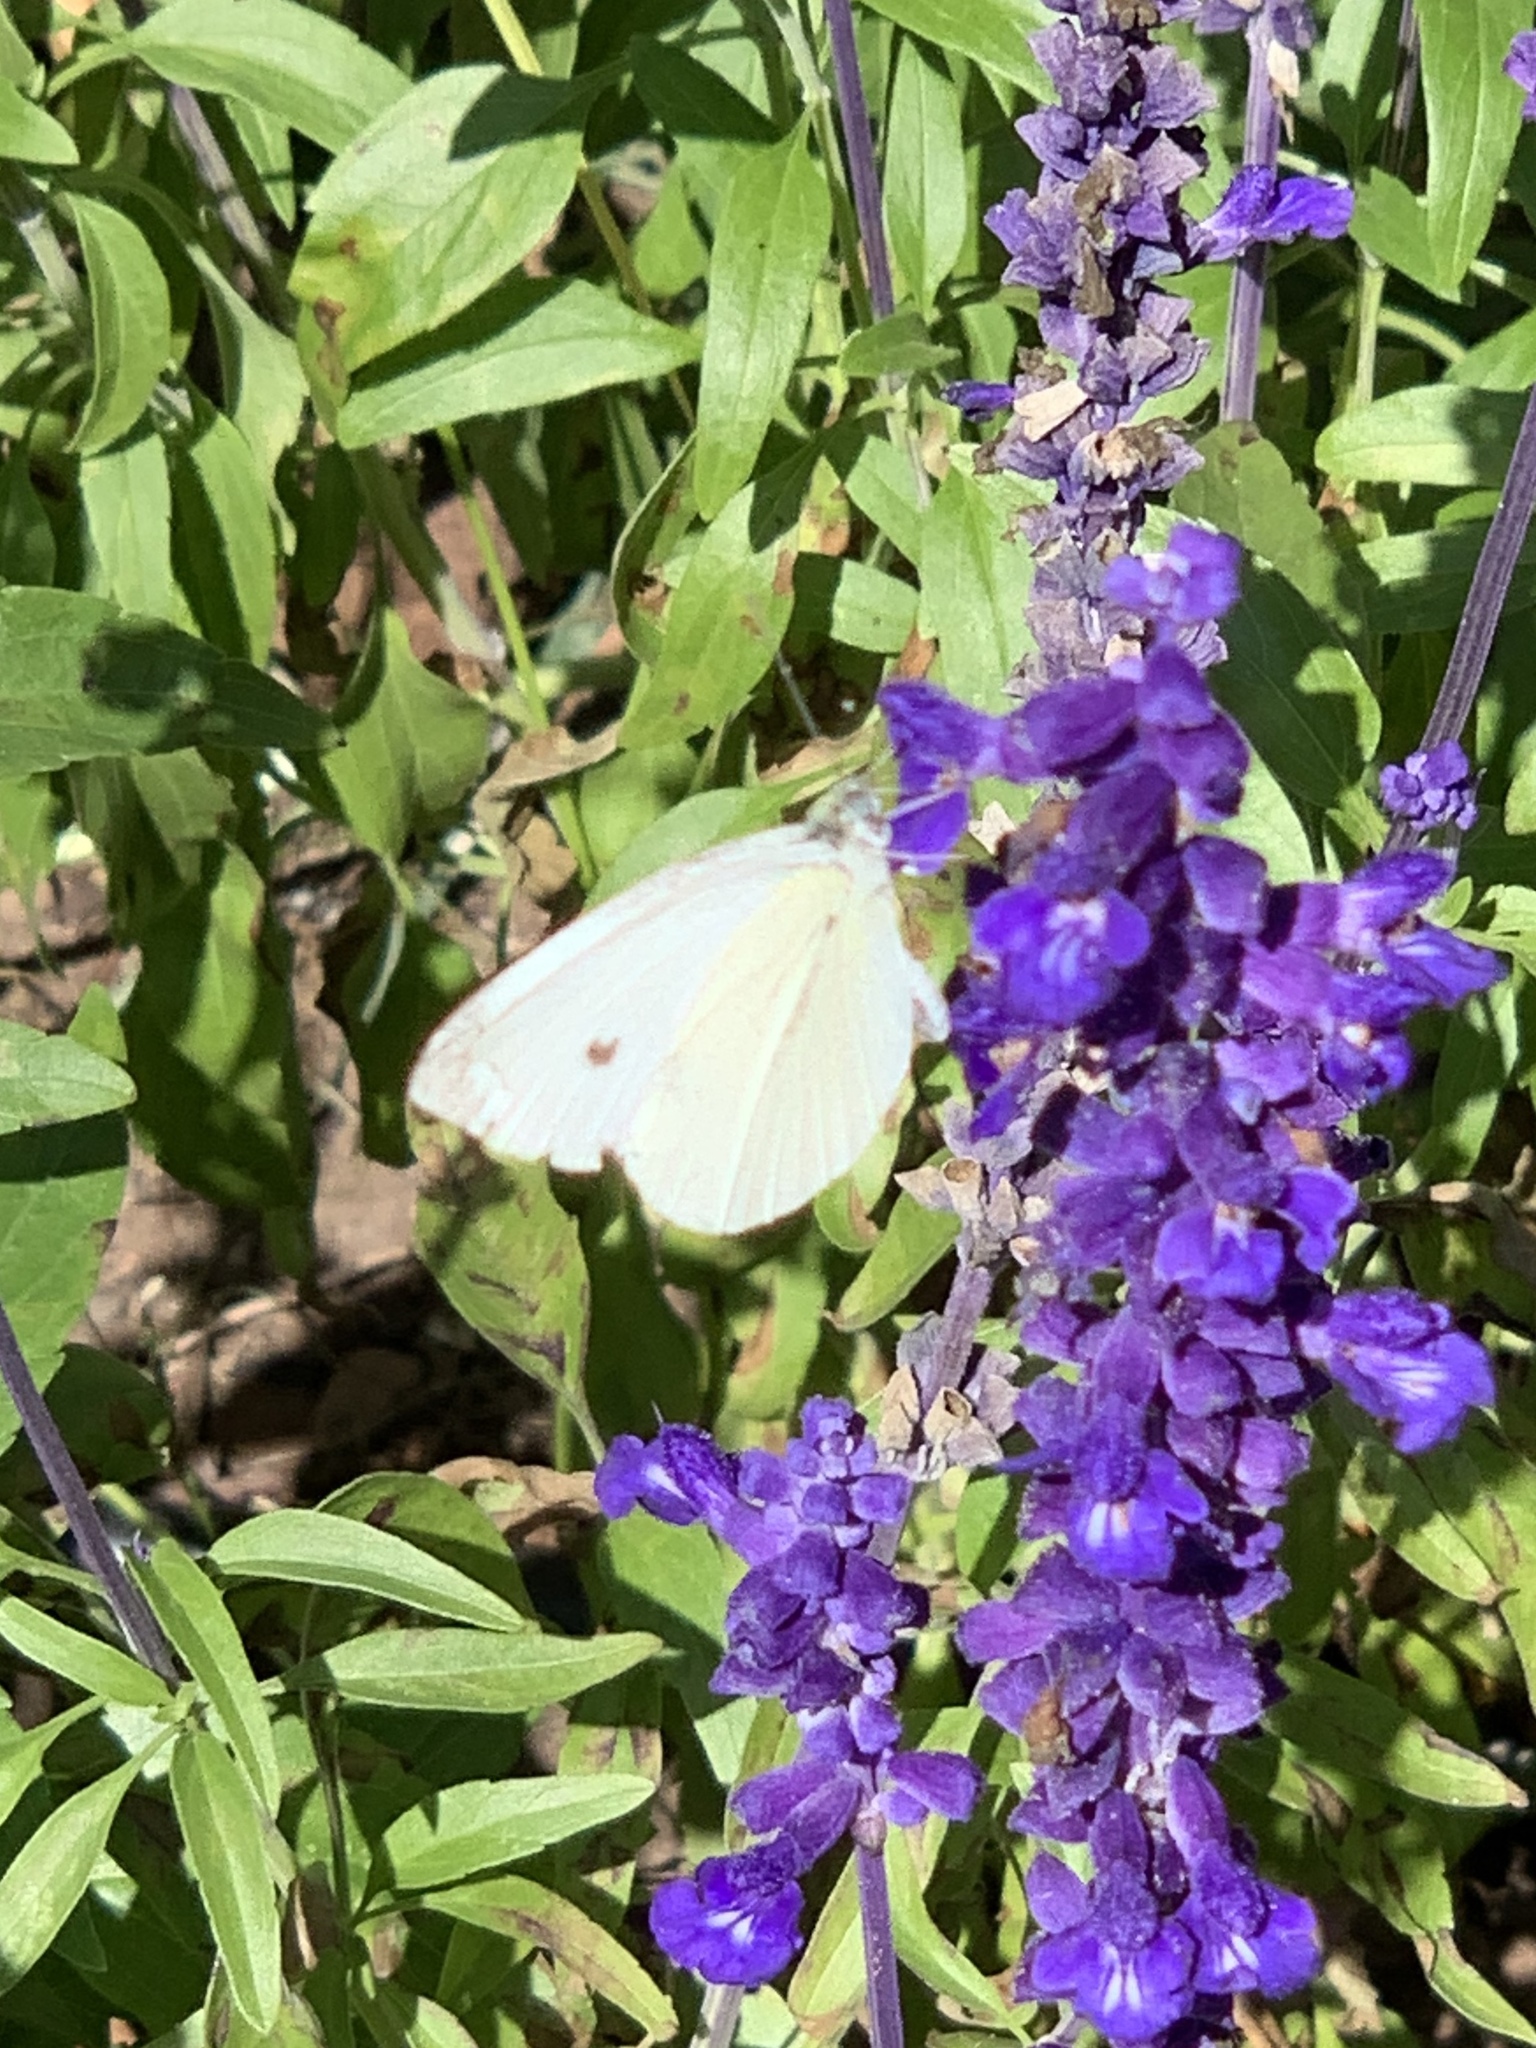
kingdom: Animalia
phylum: Arthropoda
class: Insecta
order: Lepidoptera
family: Pieridae
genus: Pieris
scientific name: Pieris rapae
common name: Small white
